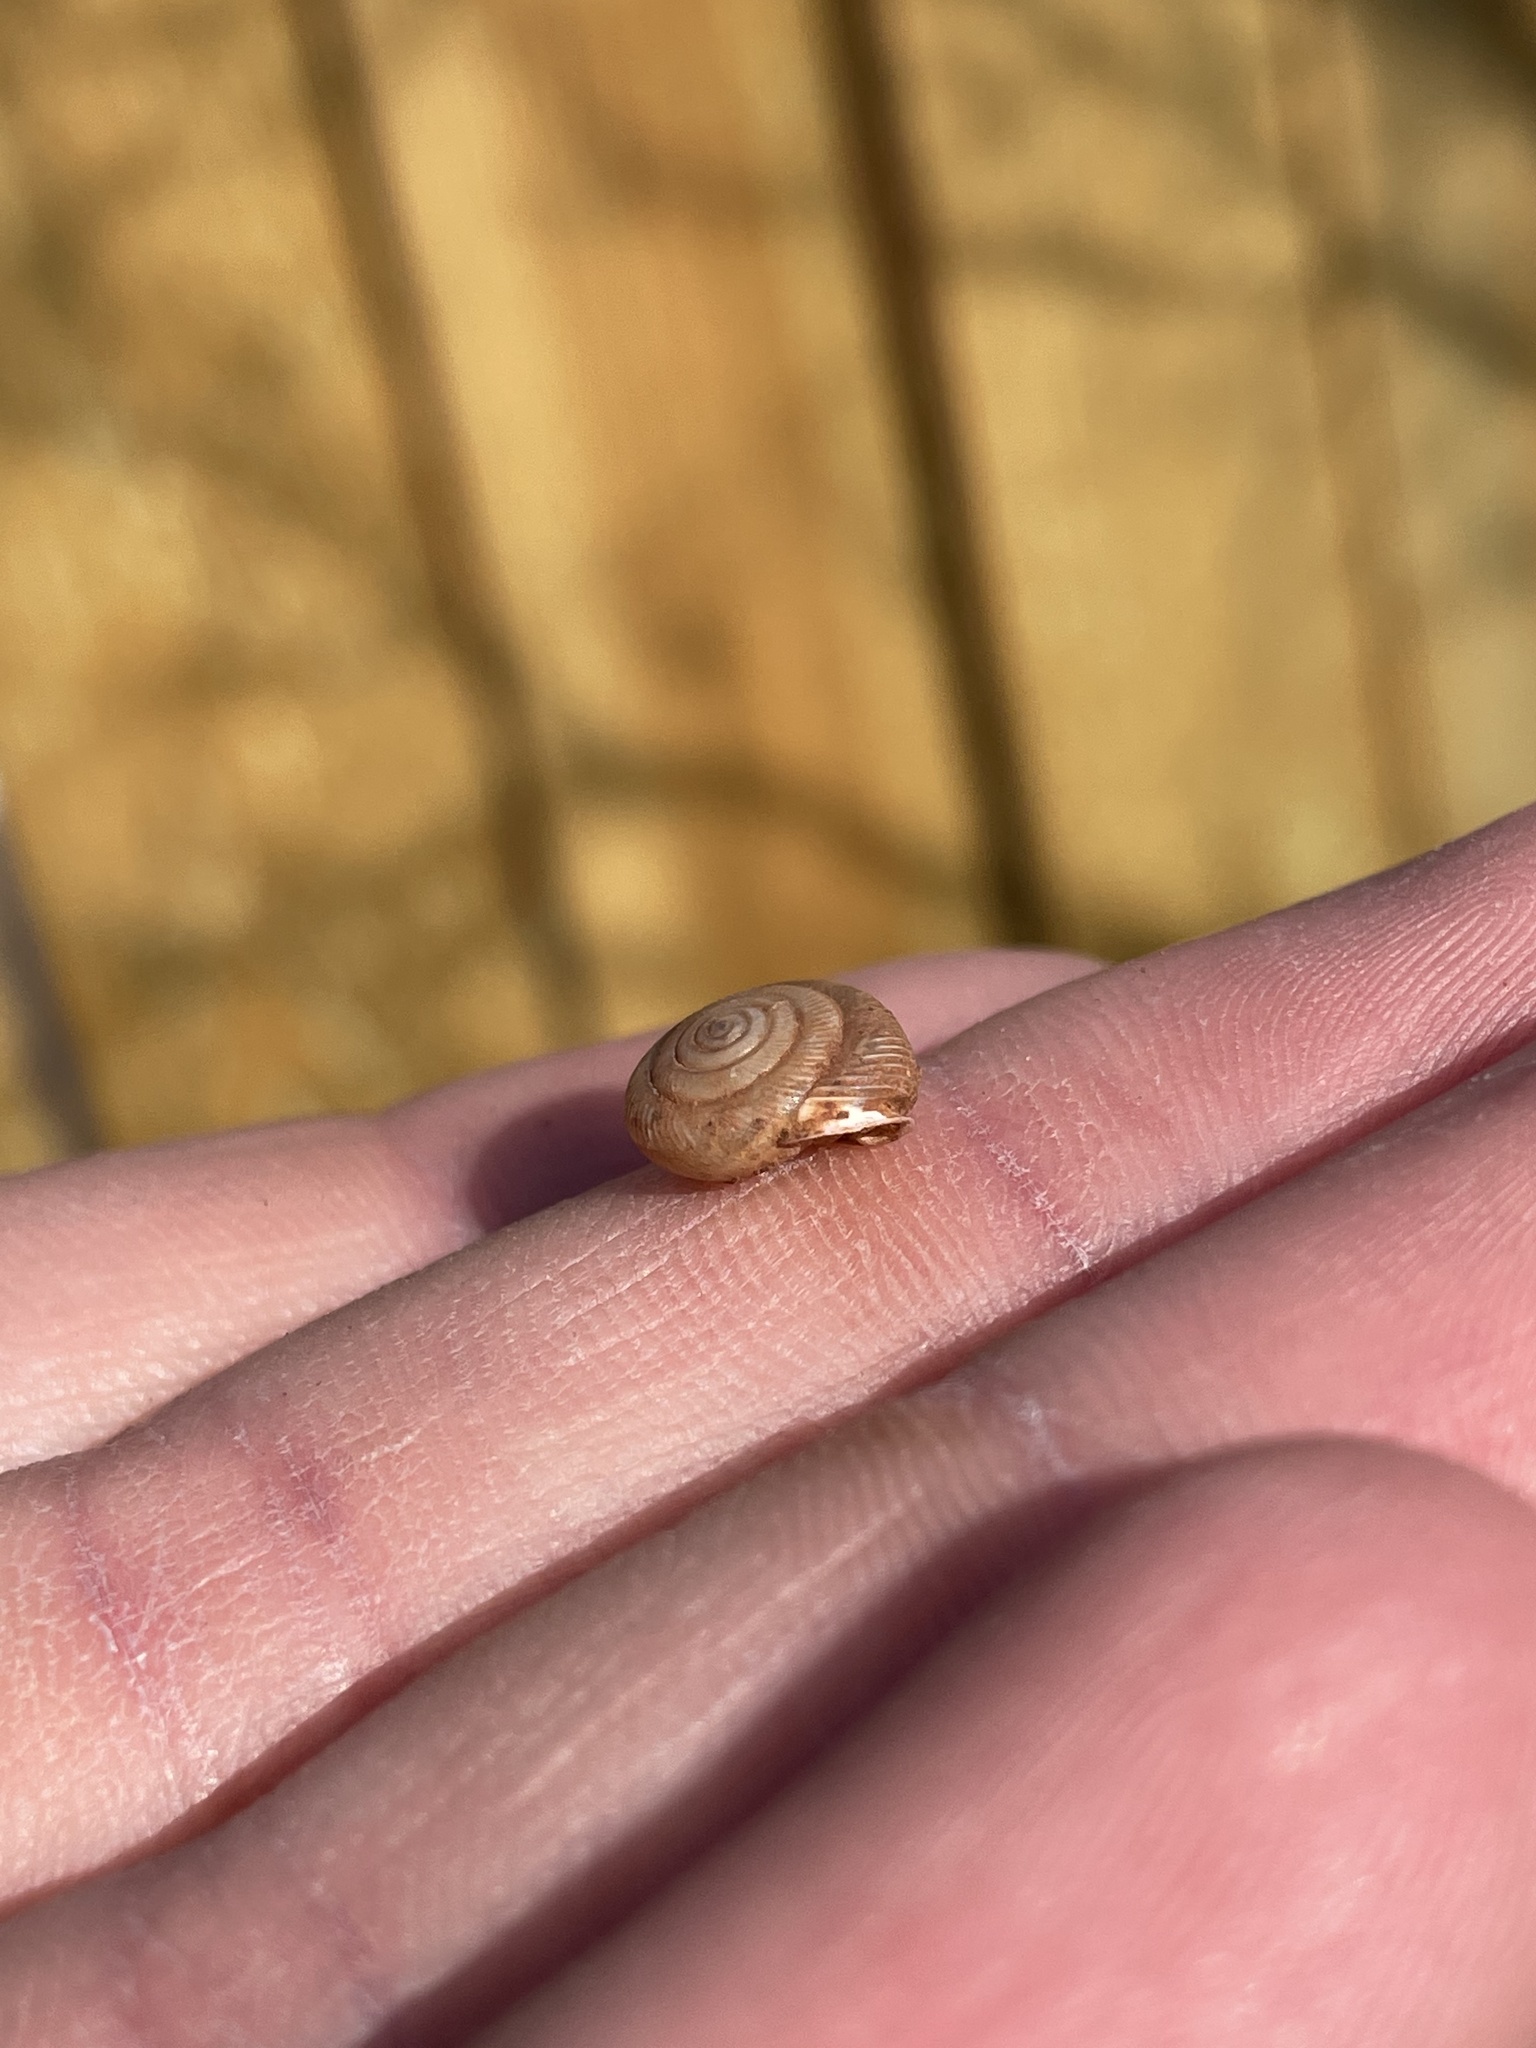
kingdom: Animalia
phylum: Mollusca
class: Gastropoda
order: Stylommatophora
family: Polygyridae
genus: Linisa
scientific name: Linisa texasiana
